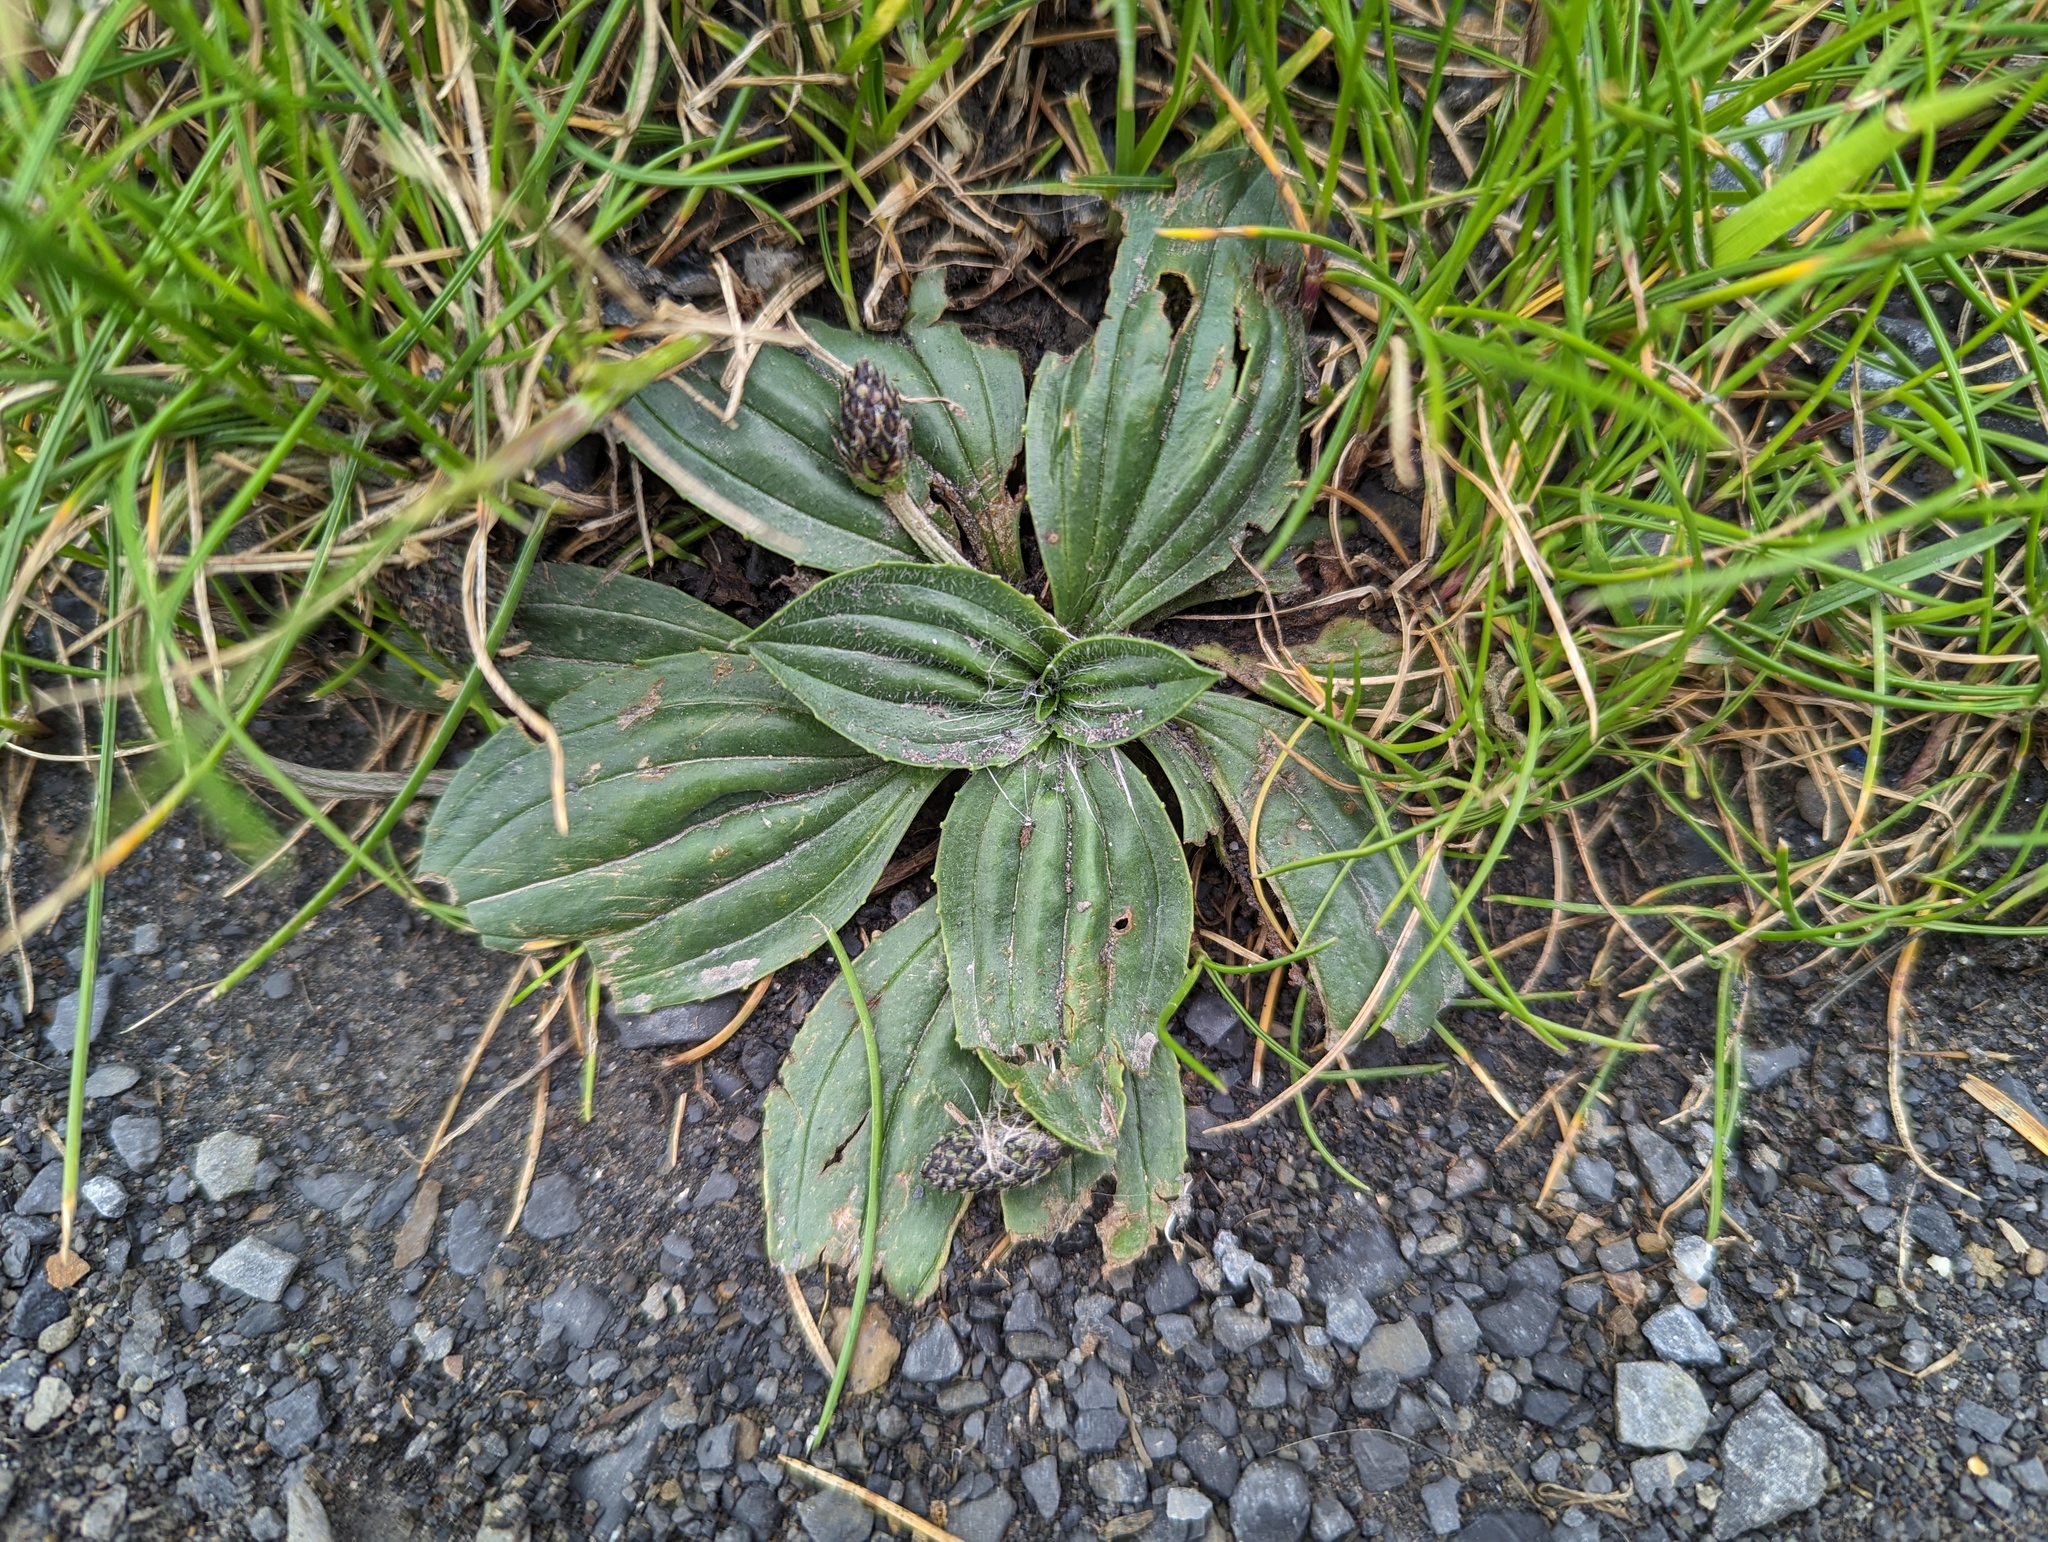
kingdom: Plantae
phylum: Tracheophyta
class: Magnoliopsida
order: Lamiales
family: Plantaginaceae
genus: Plantago
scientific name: Plantago lanceolata
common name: Ribwort plantain
